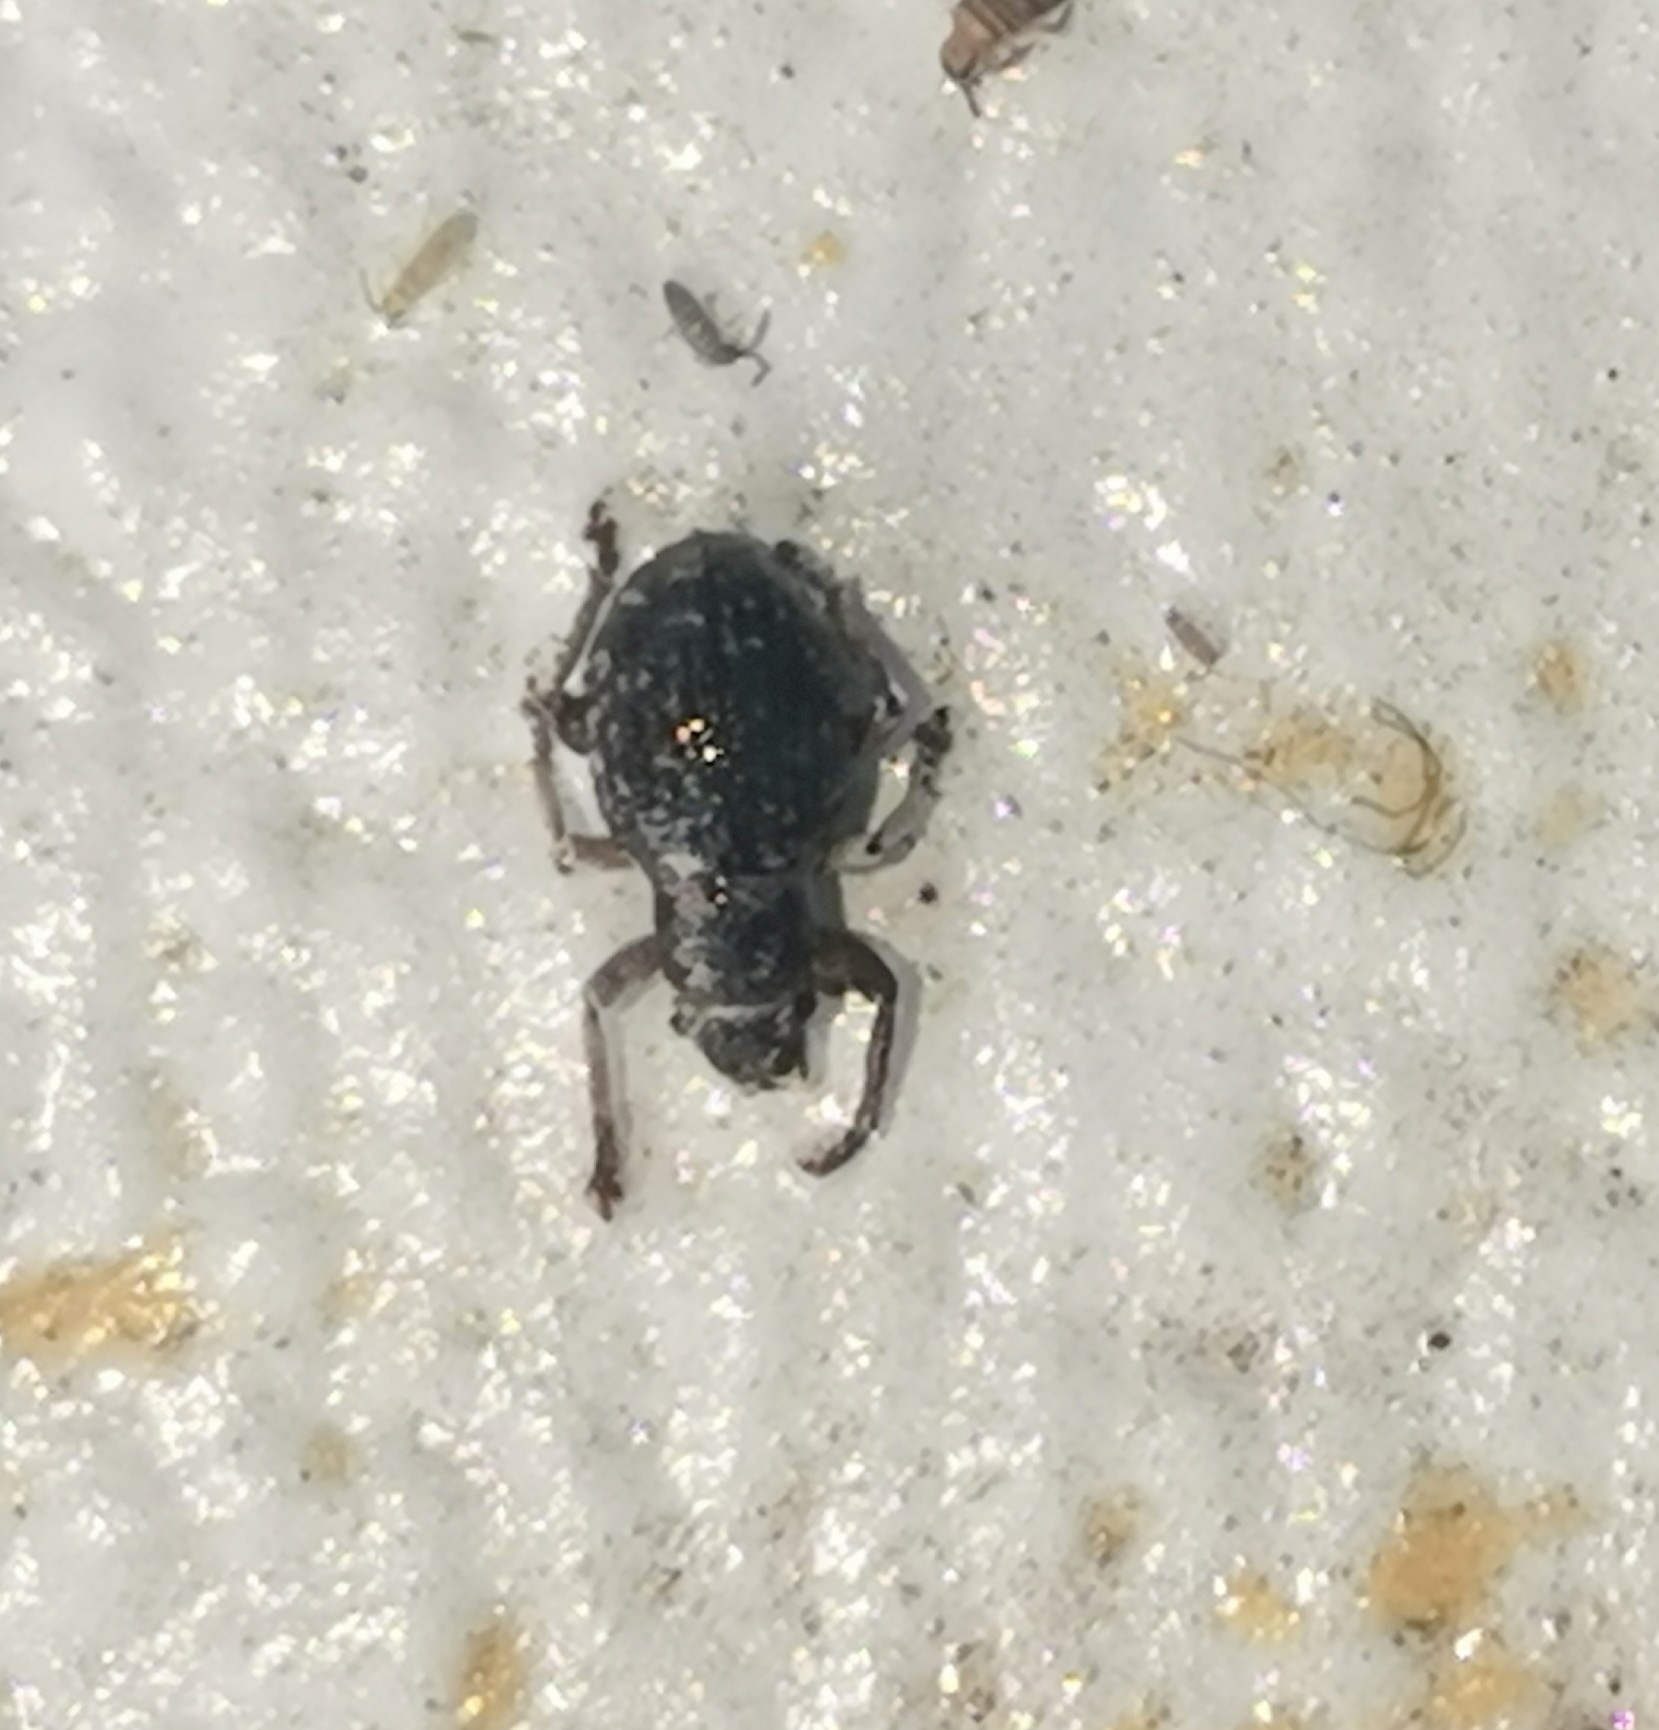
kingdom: Animalia
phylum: Arthropoda
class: Insecta
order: Coleoptera
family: Curculionidae
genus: Strophosoma
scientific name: Strophosoma capitatum
